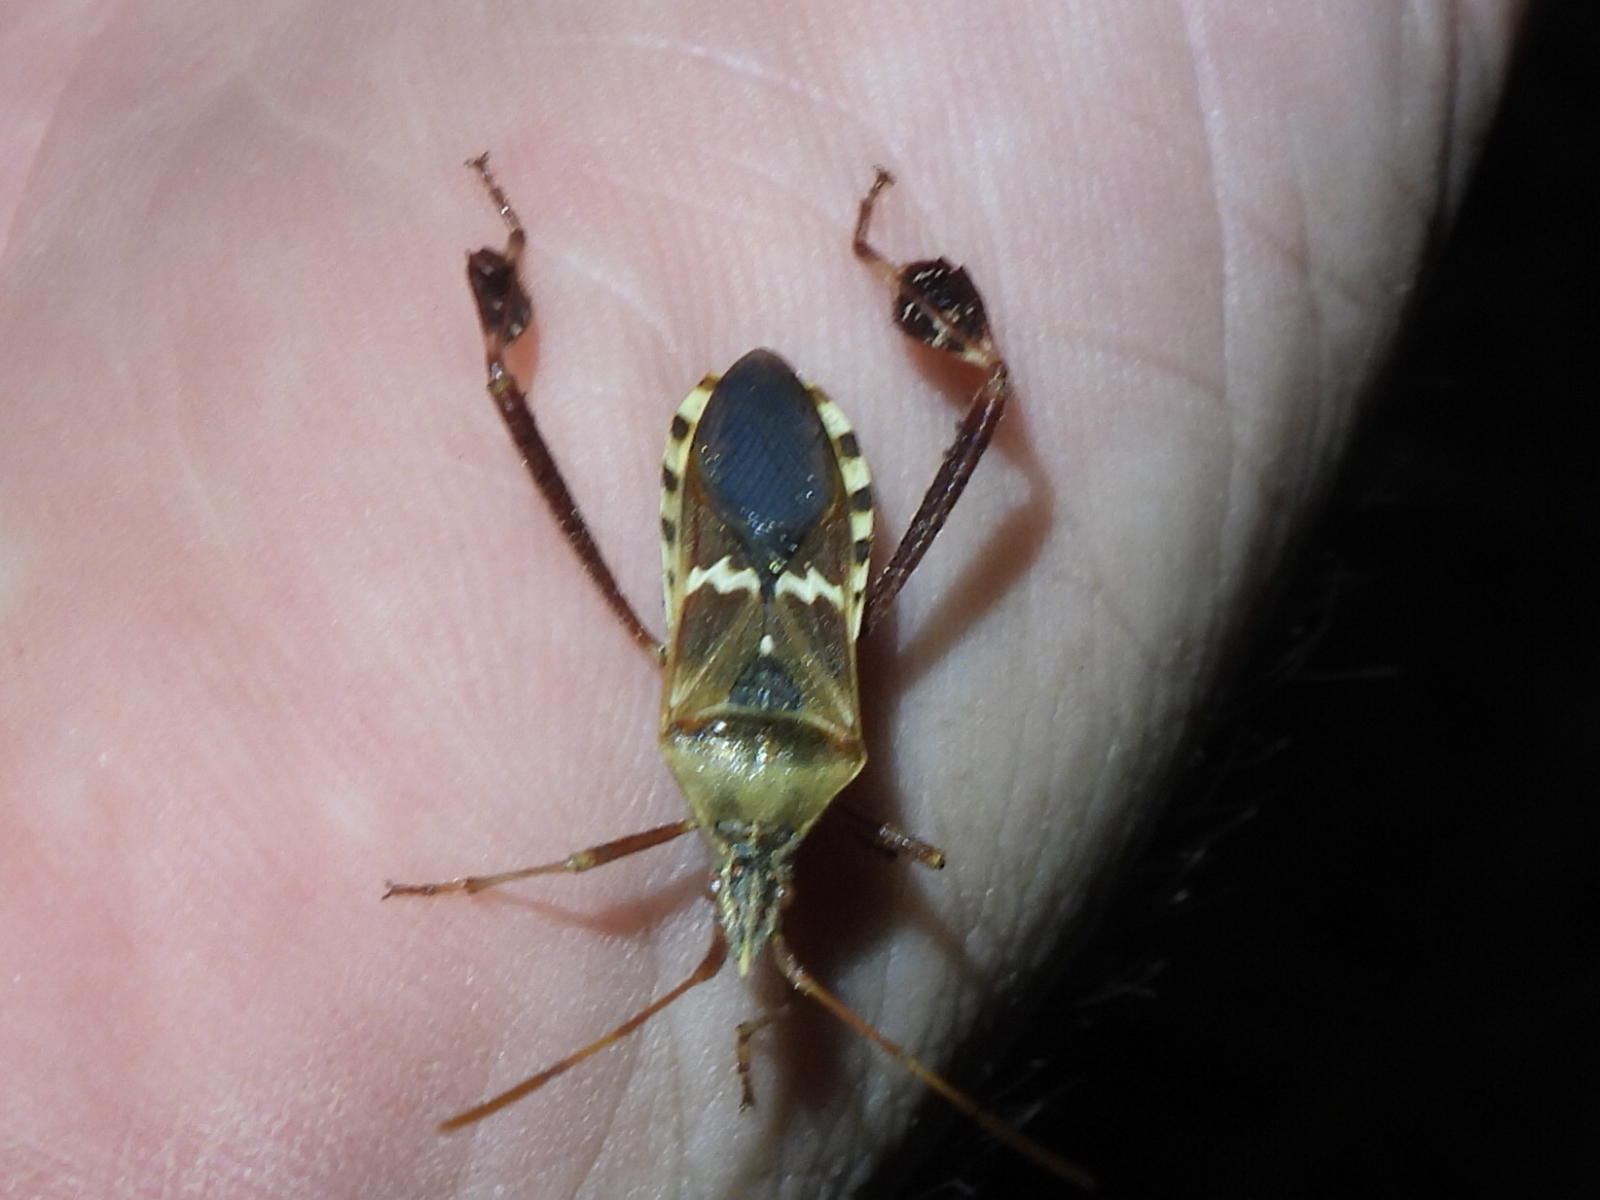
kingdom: Animalia
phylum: Arthropoda
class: Insecta
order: Hemiptera
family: Coreidae
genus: Leptoglossus
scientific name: Leptoglossus clypealis
